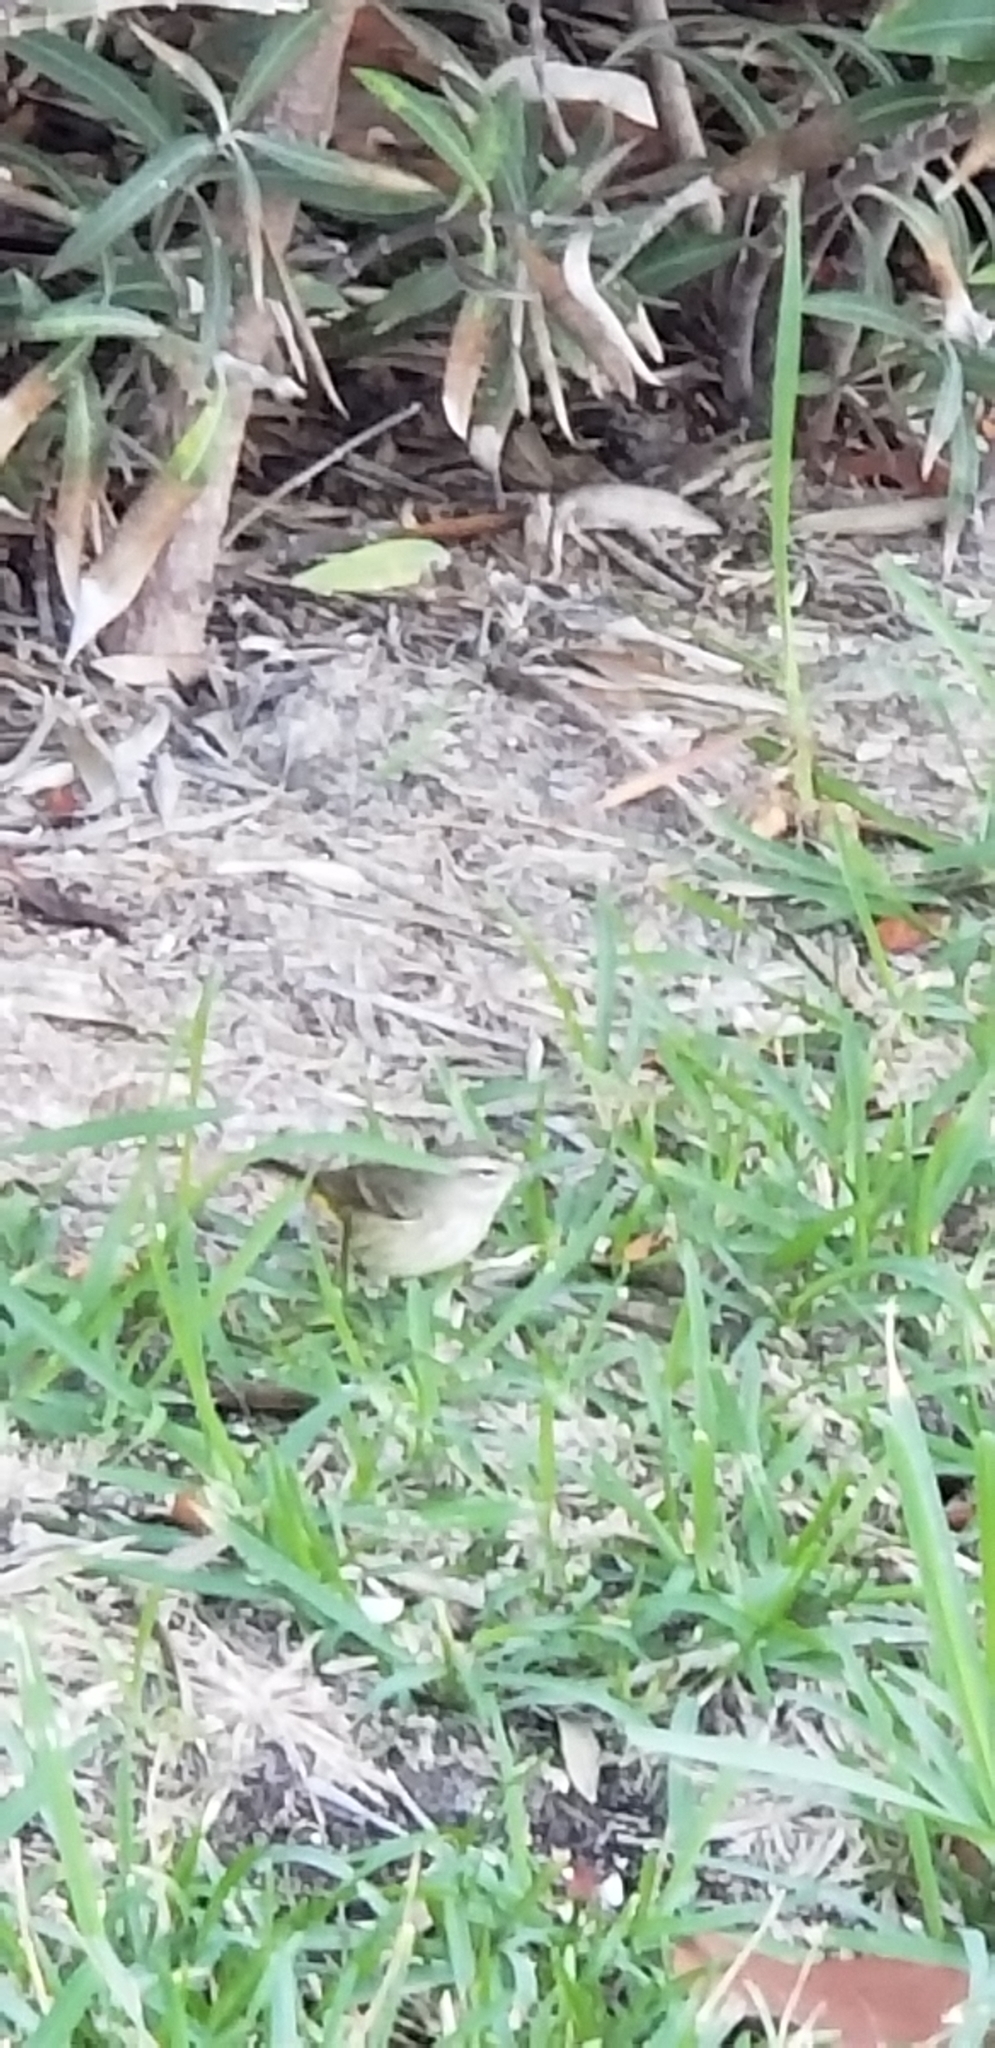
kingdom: Animalia
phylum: Chordata
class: Aves
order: Passeriformes
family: Parulidae
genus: Setophaga
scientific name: Setophaga palmarum
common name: Palm warbler
